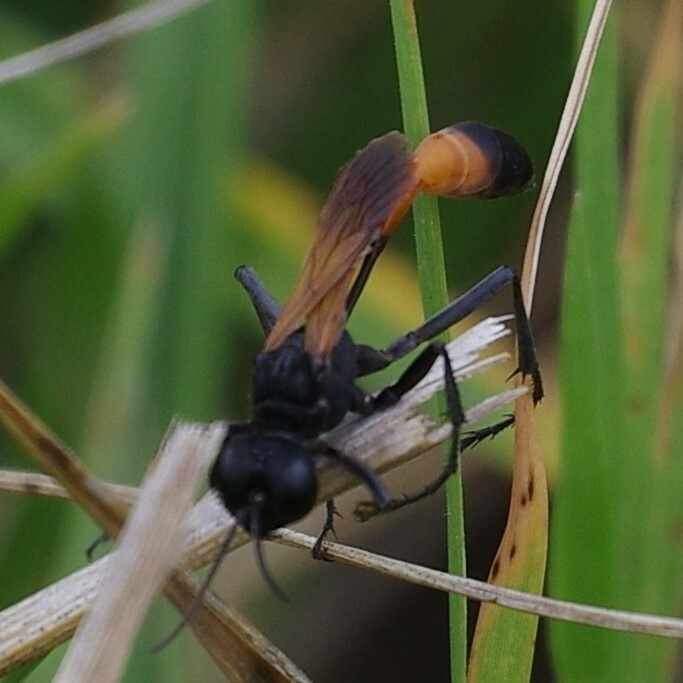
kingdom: Animalia
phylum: Arthropoda
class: Insecta
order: Hymenoptera
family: Sphecidae
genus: Ammophila
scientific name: Ammophila pictipennis
